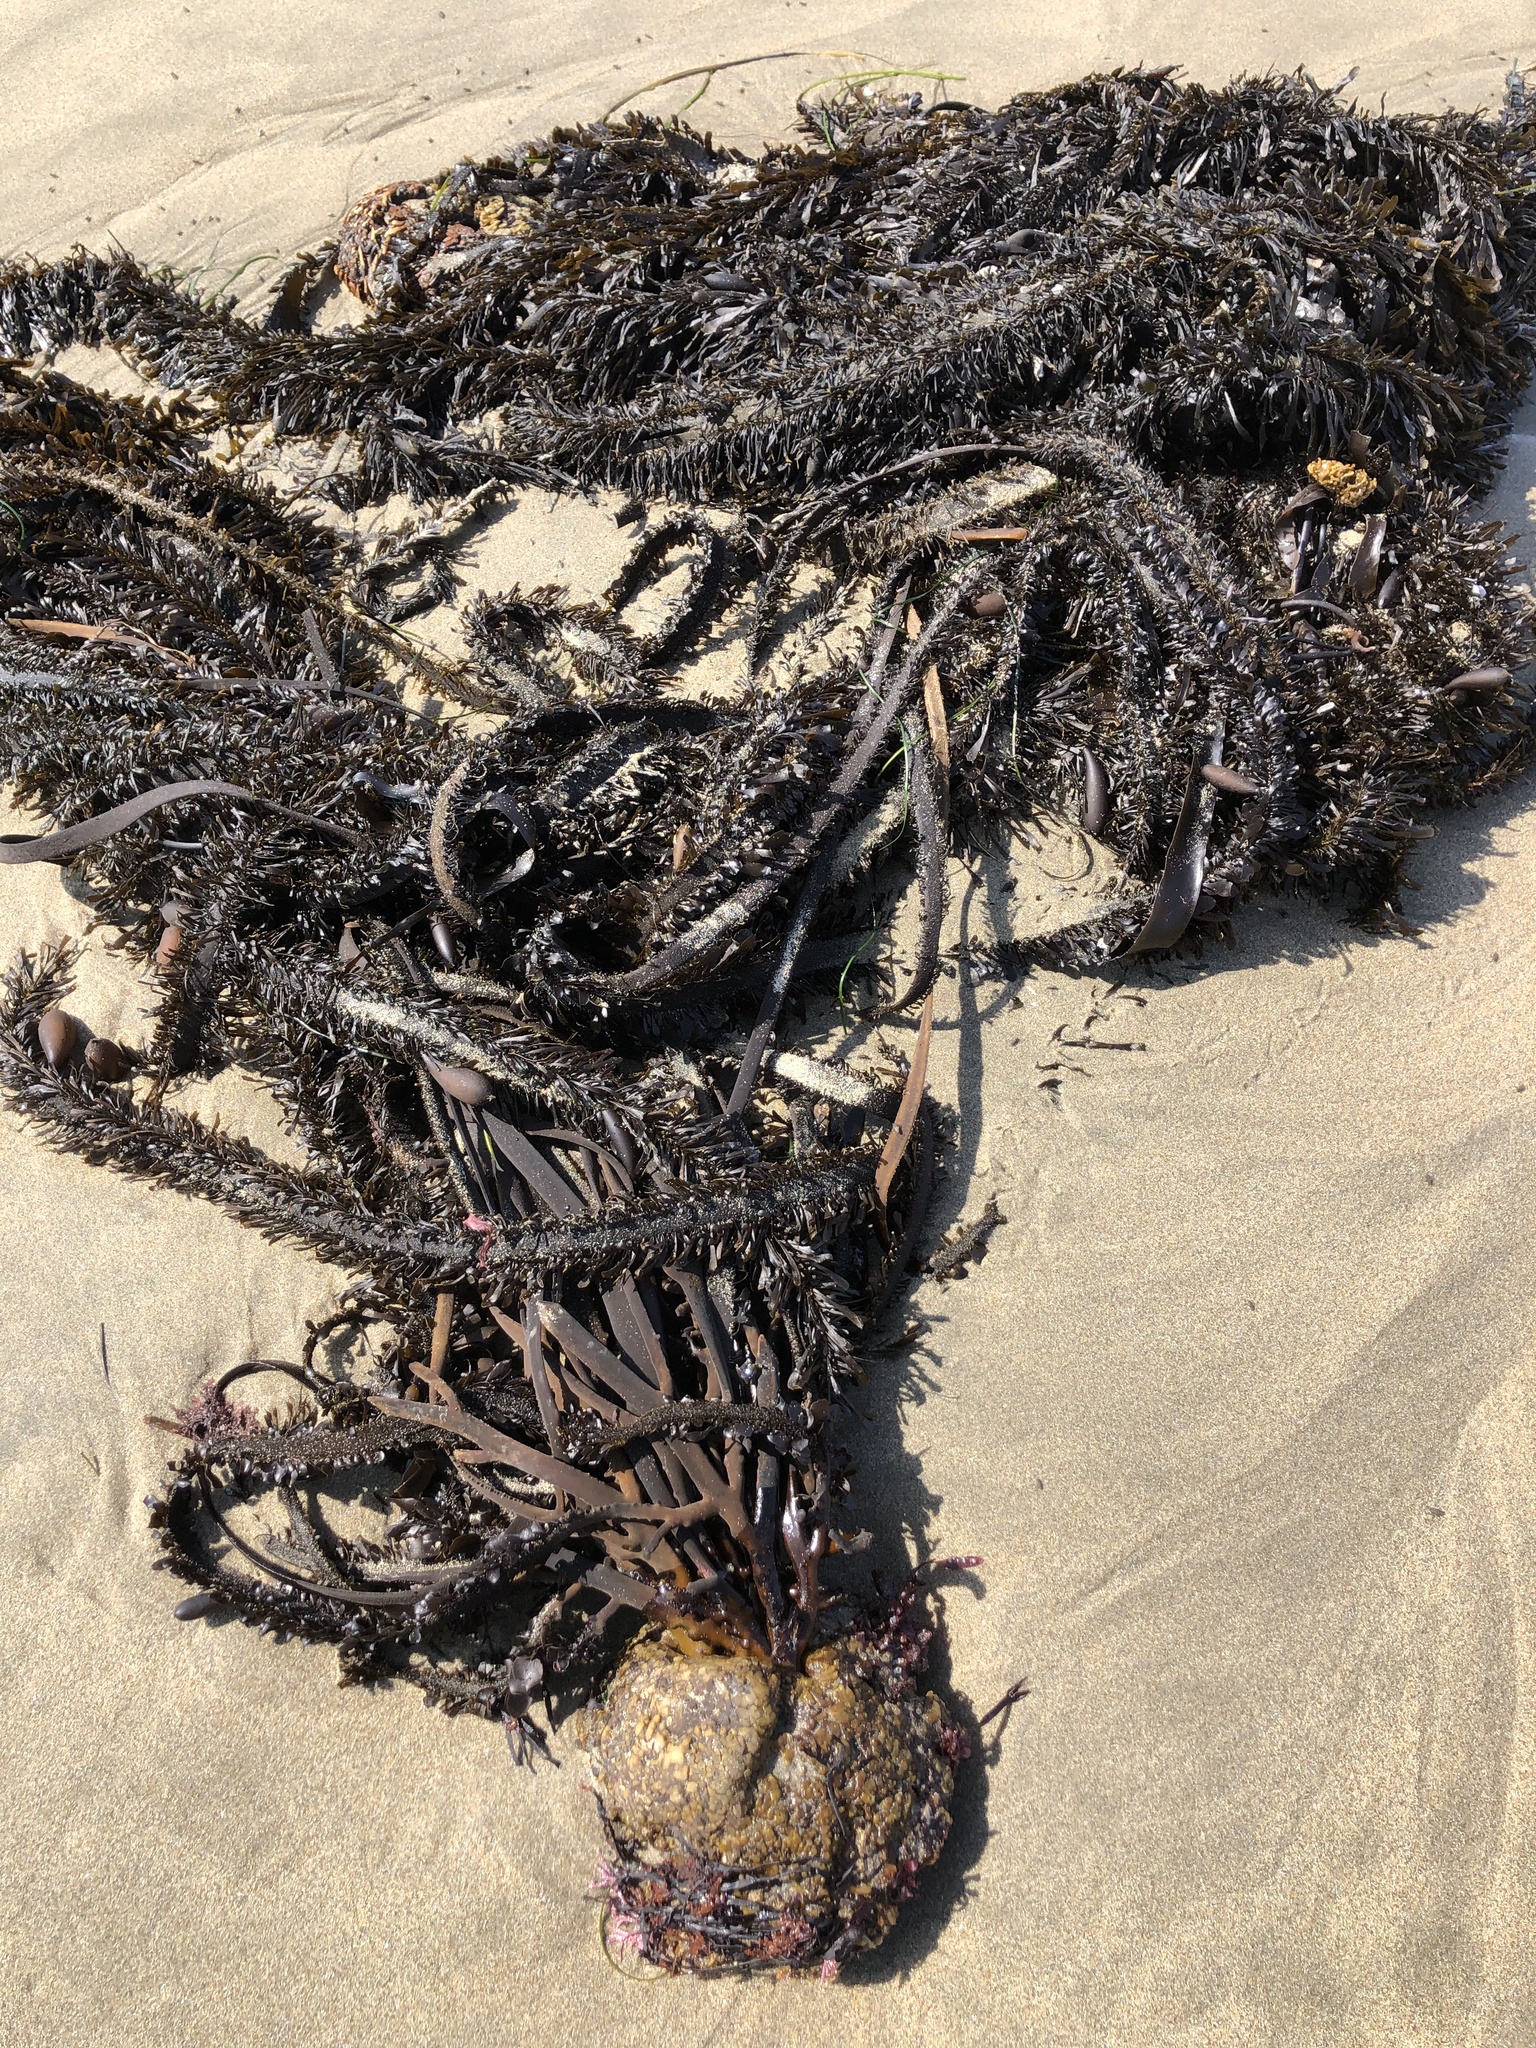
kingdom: Chromista
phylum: Ochrophyta
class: Phaeophyceae
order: Laminariales
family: Lessoniaceae
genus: Egregia
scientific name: Egregia menziesii
